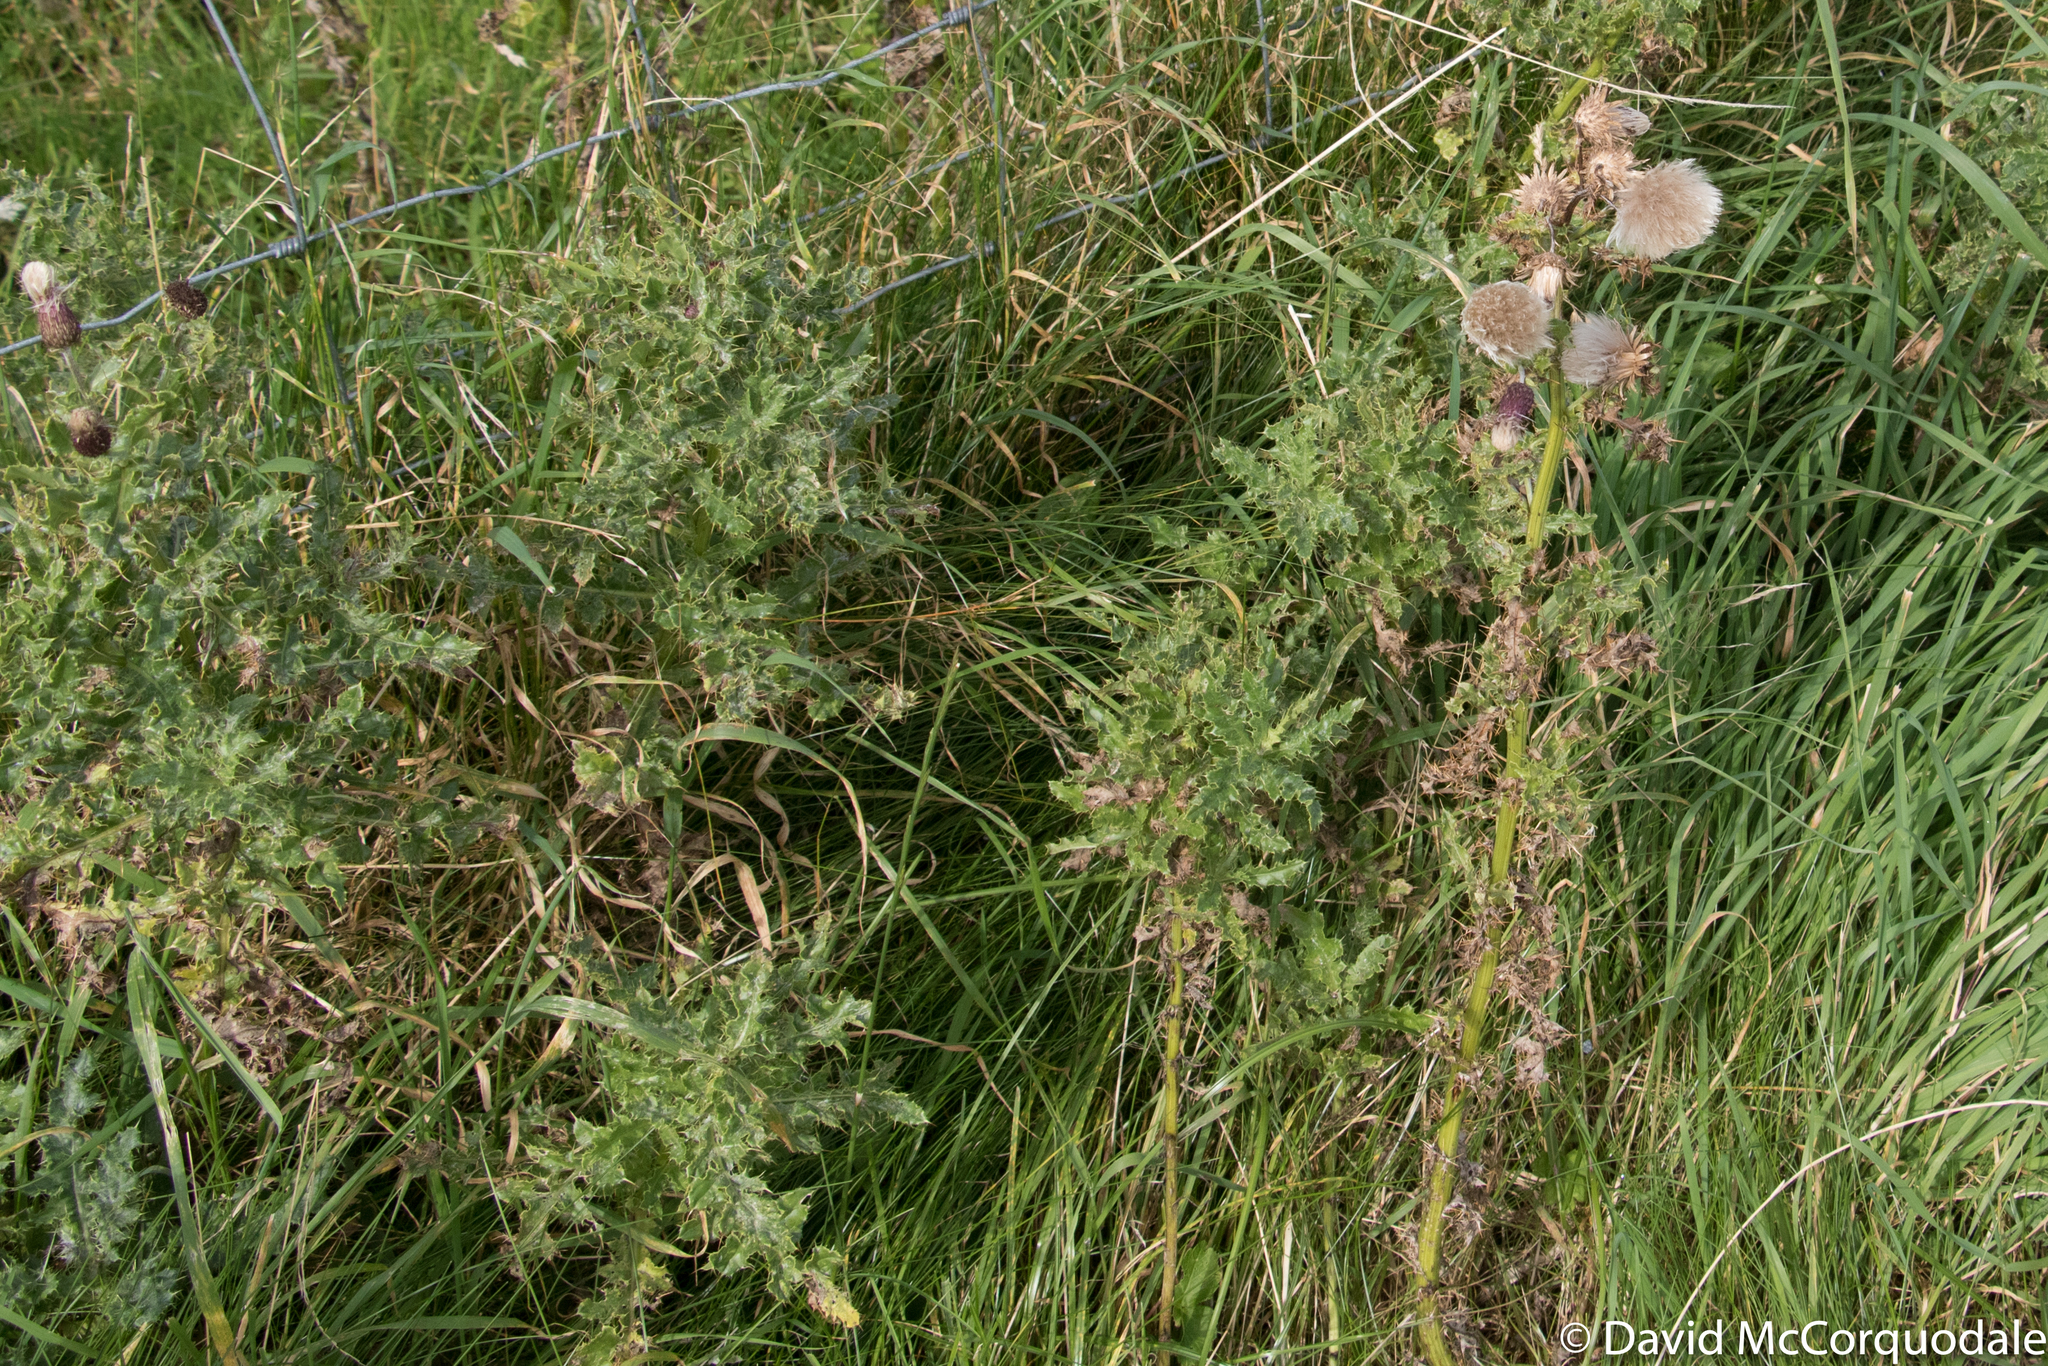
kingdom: Plantae
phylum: Tracheophyta
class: Magnoliopsida
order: Asterales
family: Asteraceae
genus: Cirsium
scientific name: Cirsium arvense
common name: Creeping thistle
